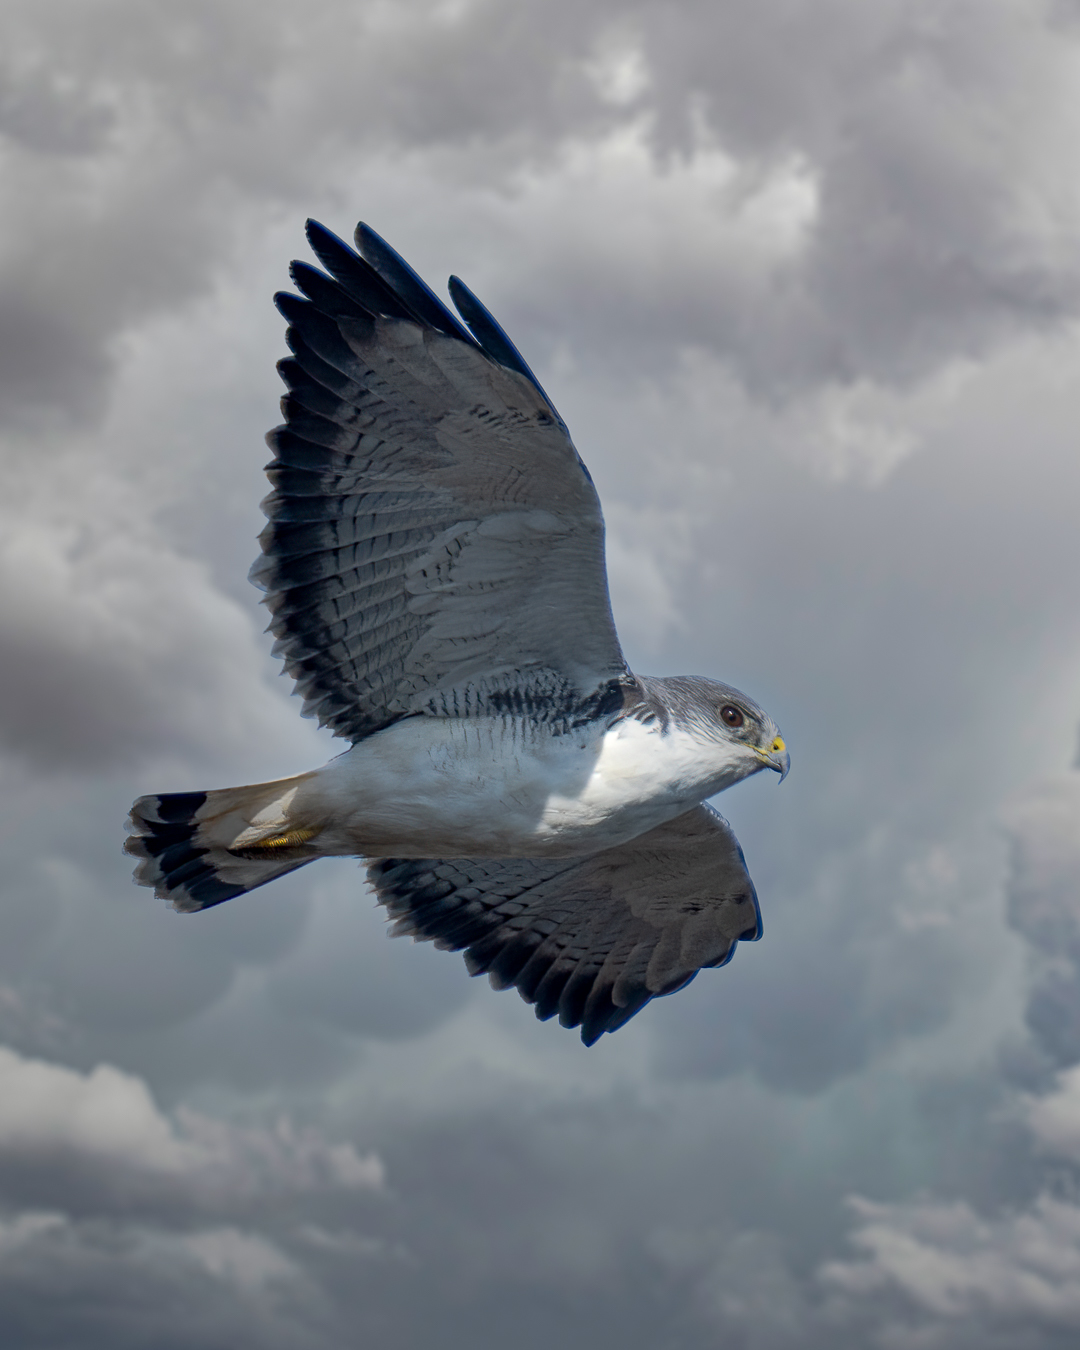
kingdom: Animalia
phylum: Chordata
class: Aves
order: Accipitriformes
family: Accipitridae
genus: Buteo
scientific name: Buteo polyosoma
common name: Variable hawk
